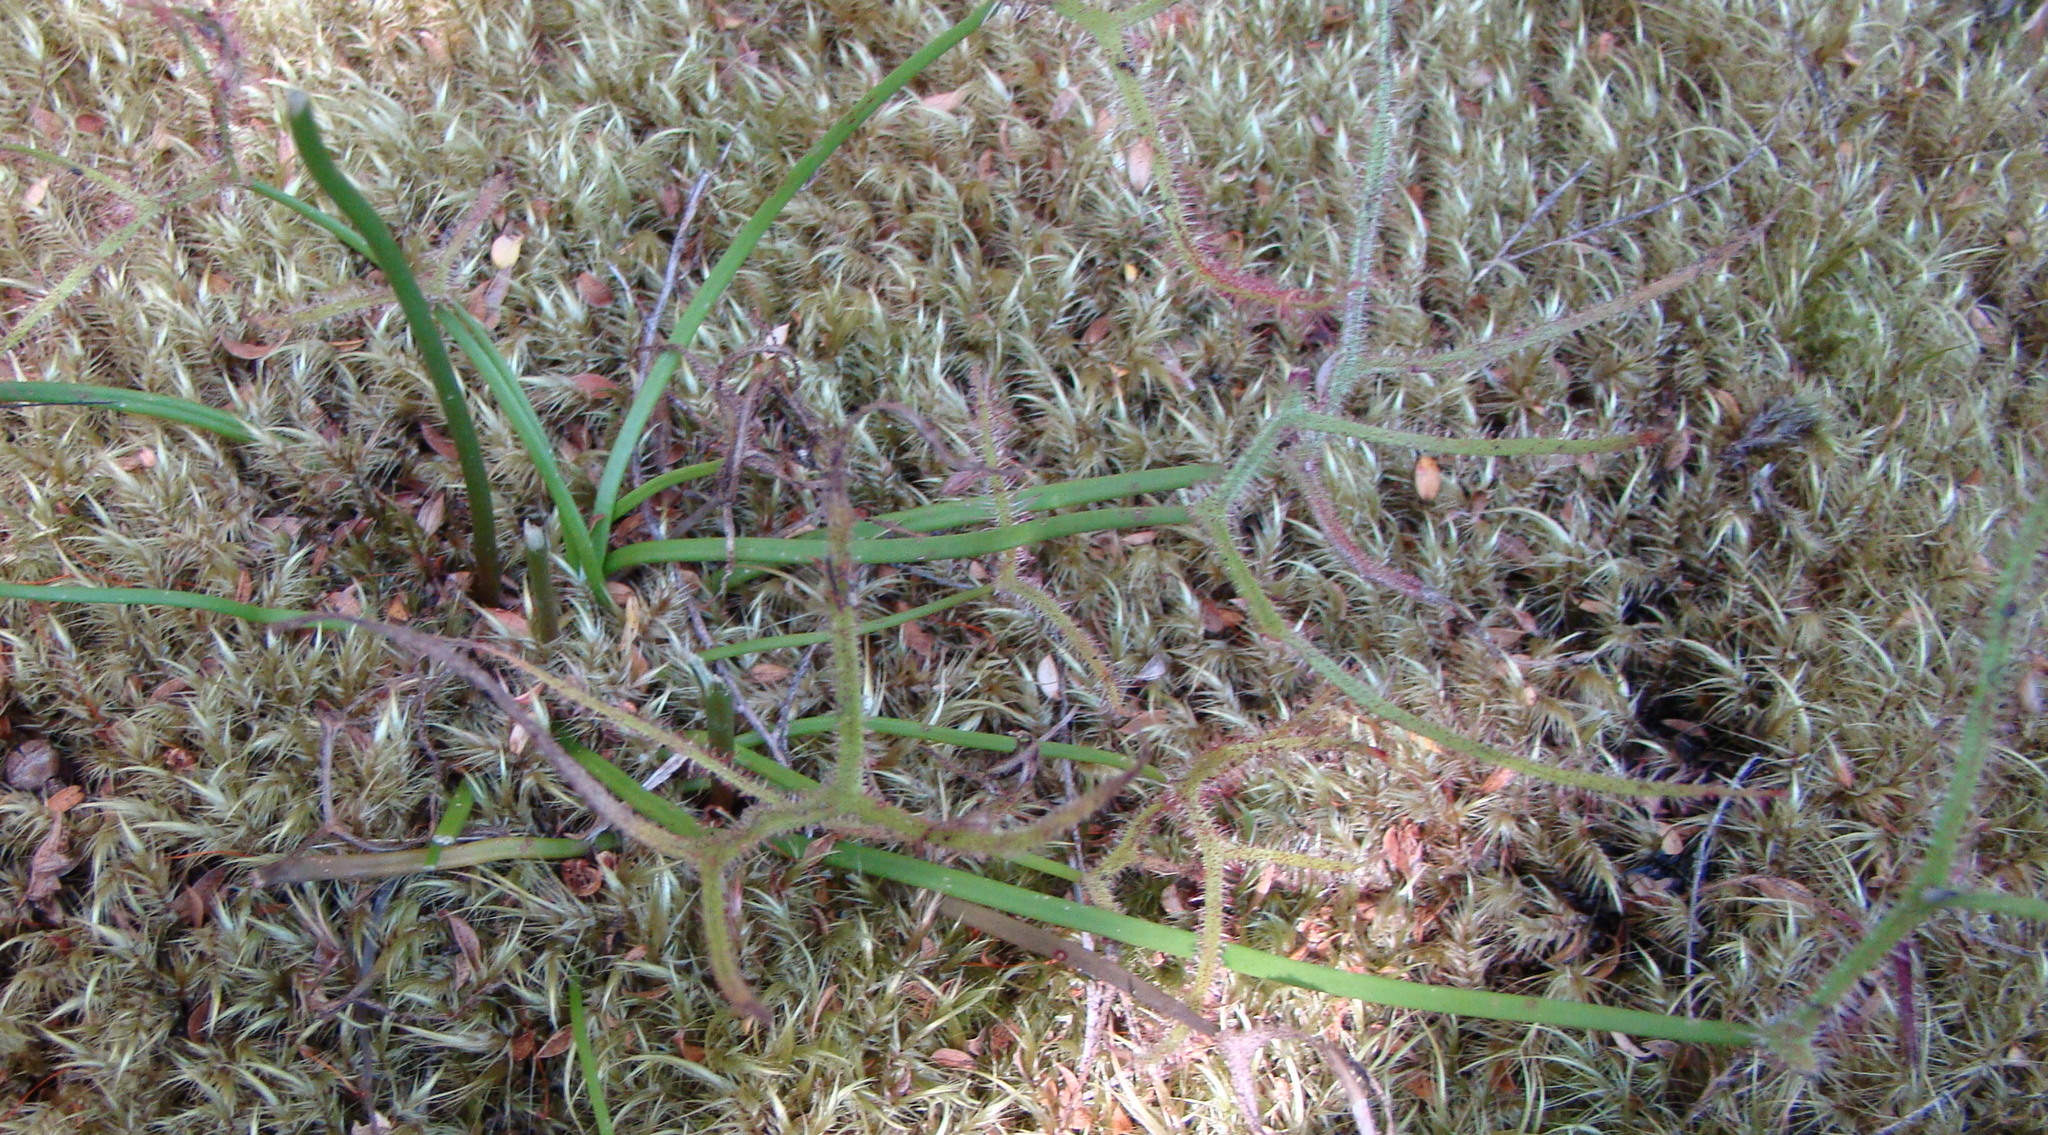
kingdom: Plantae
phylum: Tracheophyta
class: Magnoliopsida
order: Caryophyllales
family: Droseraceae
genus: Drosera
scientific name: Drosera binata
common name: Forked sundew
